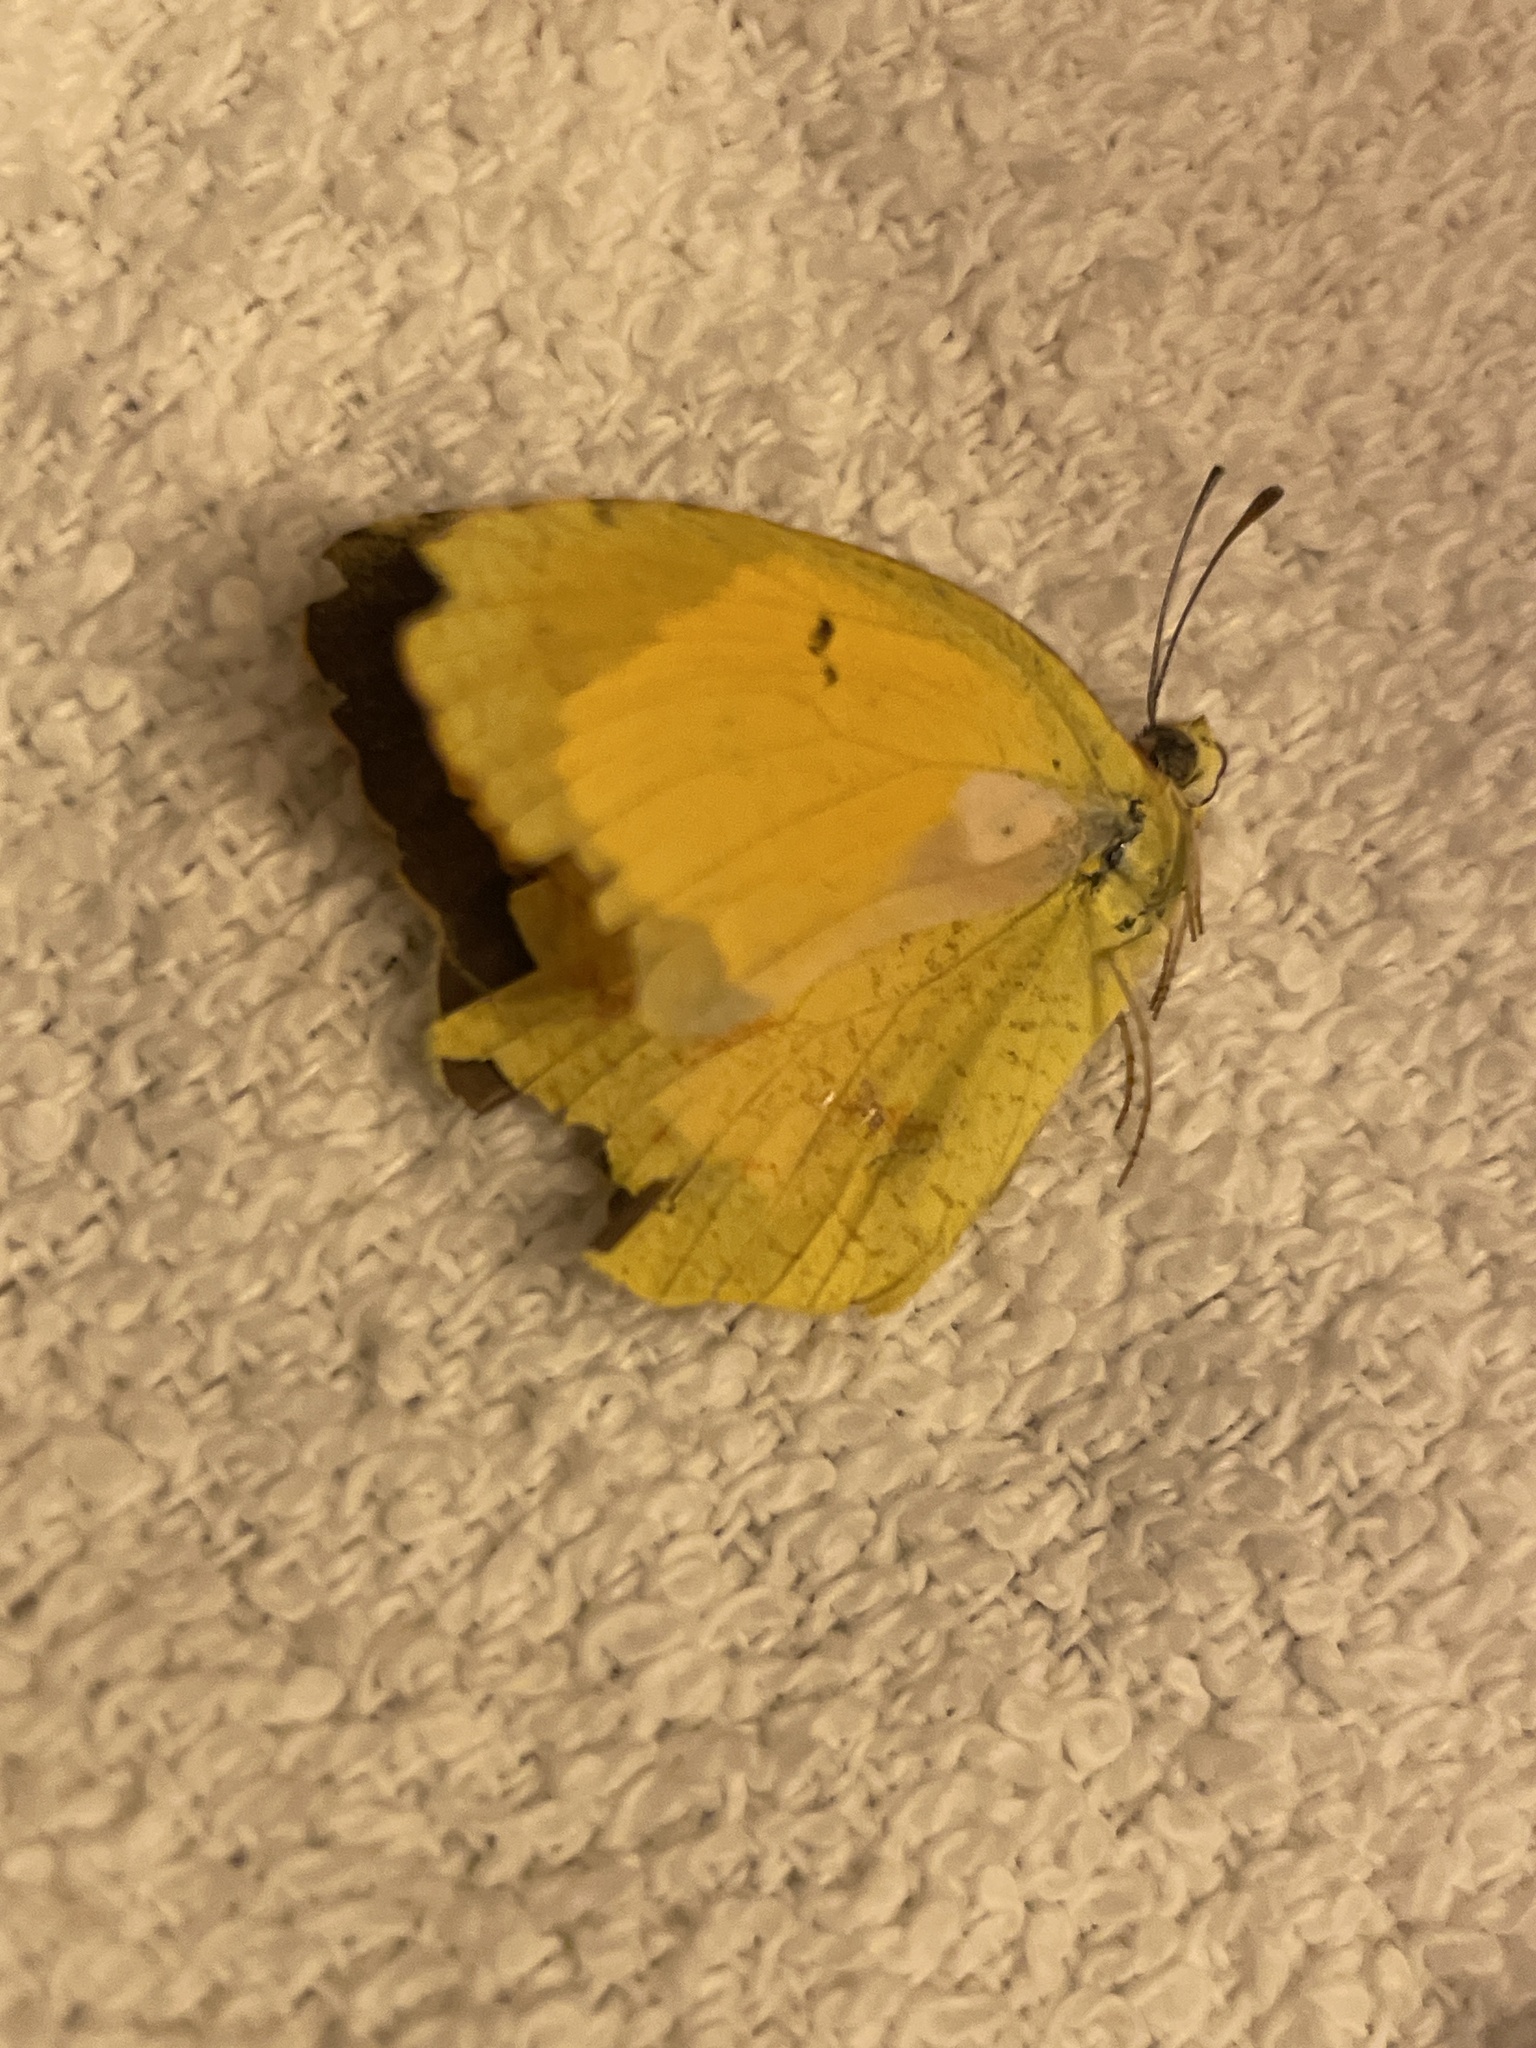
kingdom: Animalia
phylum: Arthropoda
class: Insecta
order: Lepidoptera
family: Pieridae
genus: Abaeis
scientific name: Abaeis nicippe
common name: Sleepy orange
